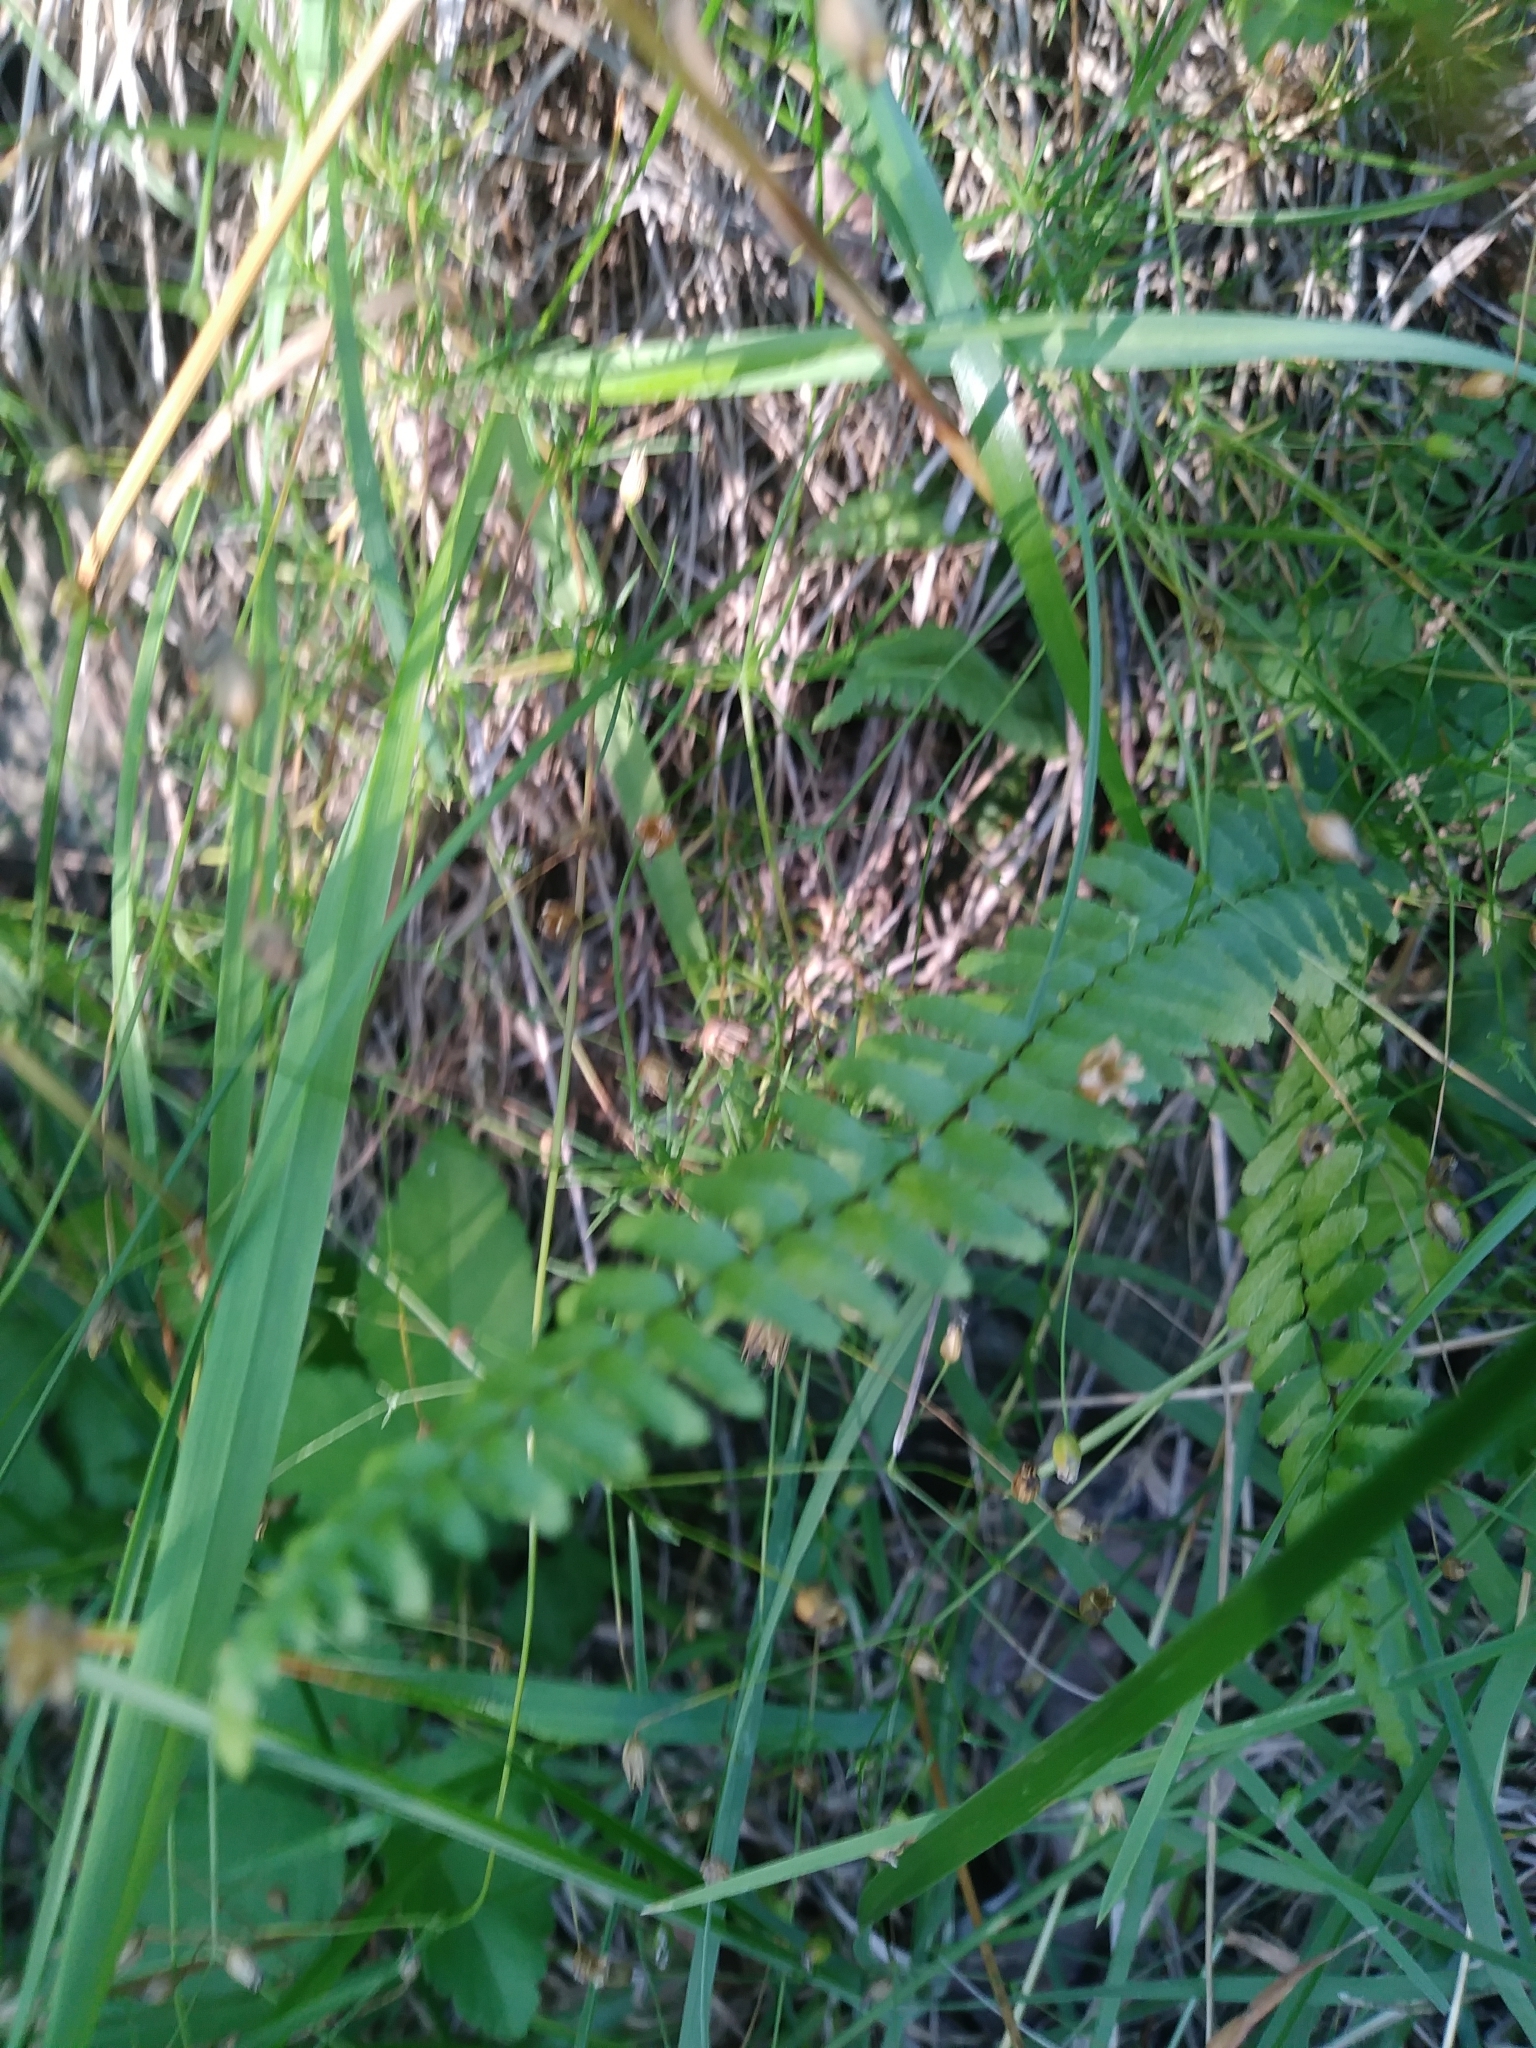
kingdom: Plantae
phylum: Tracheophyta
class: Polypodiopsida
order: Polypodiales
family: Aspleniaceae
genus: Asplenium
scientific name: Asplenium platyneuron
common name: Ebony spleenwort
